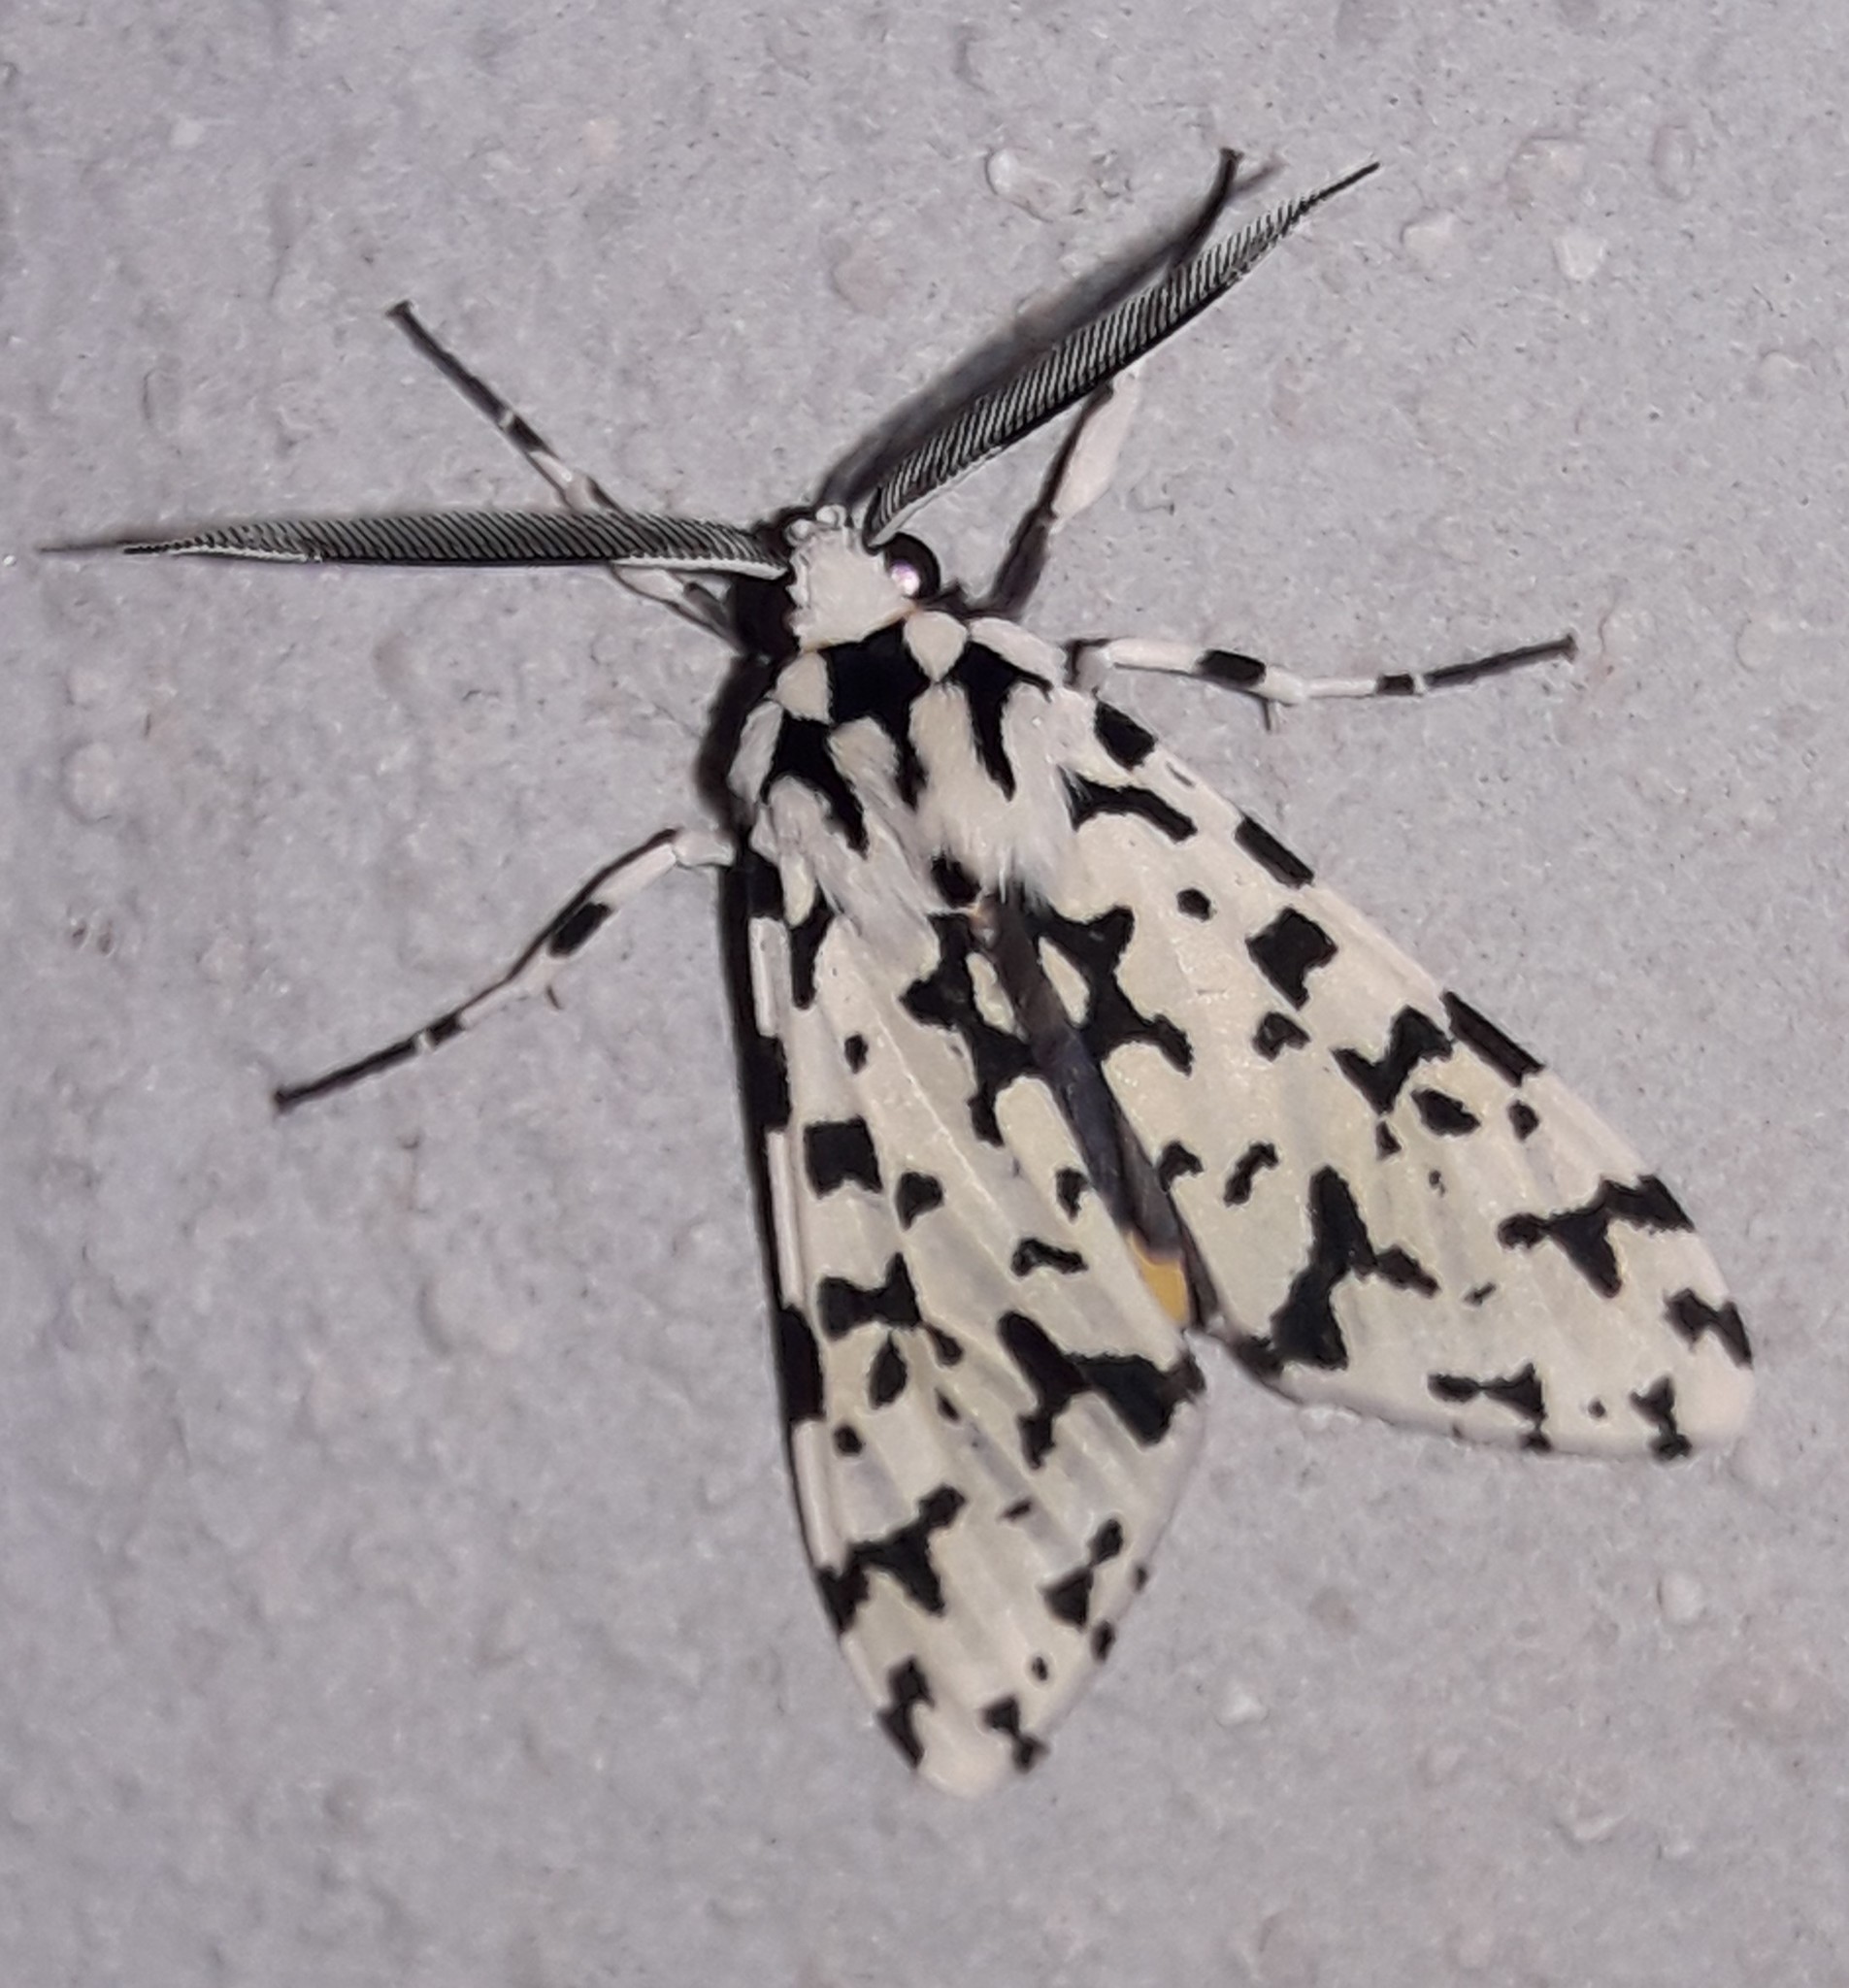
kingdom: Animalia
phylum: Arthropoda
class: Insecta
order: Lepidoptera
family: Erebidae
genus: Eucereon
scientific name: Eucereon tigrata
